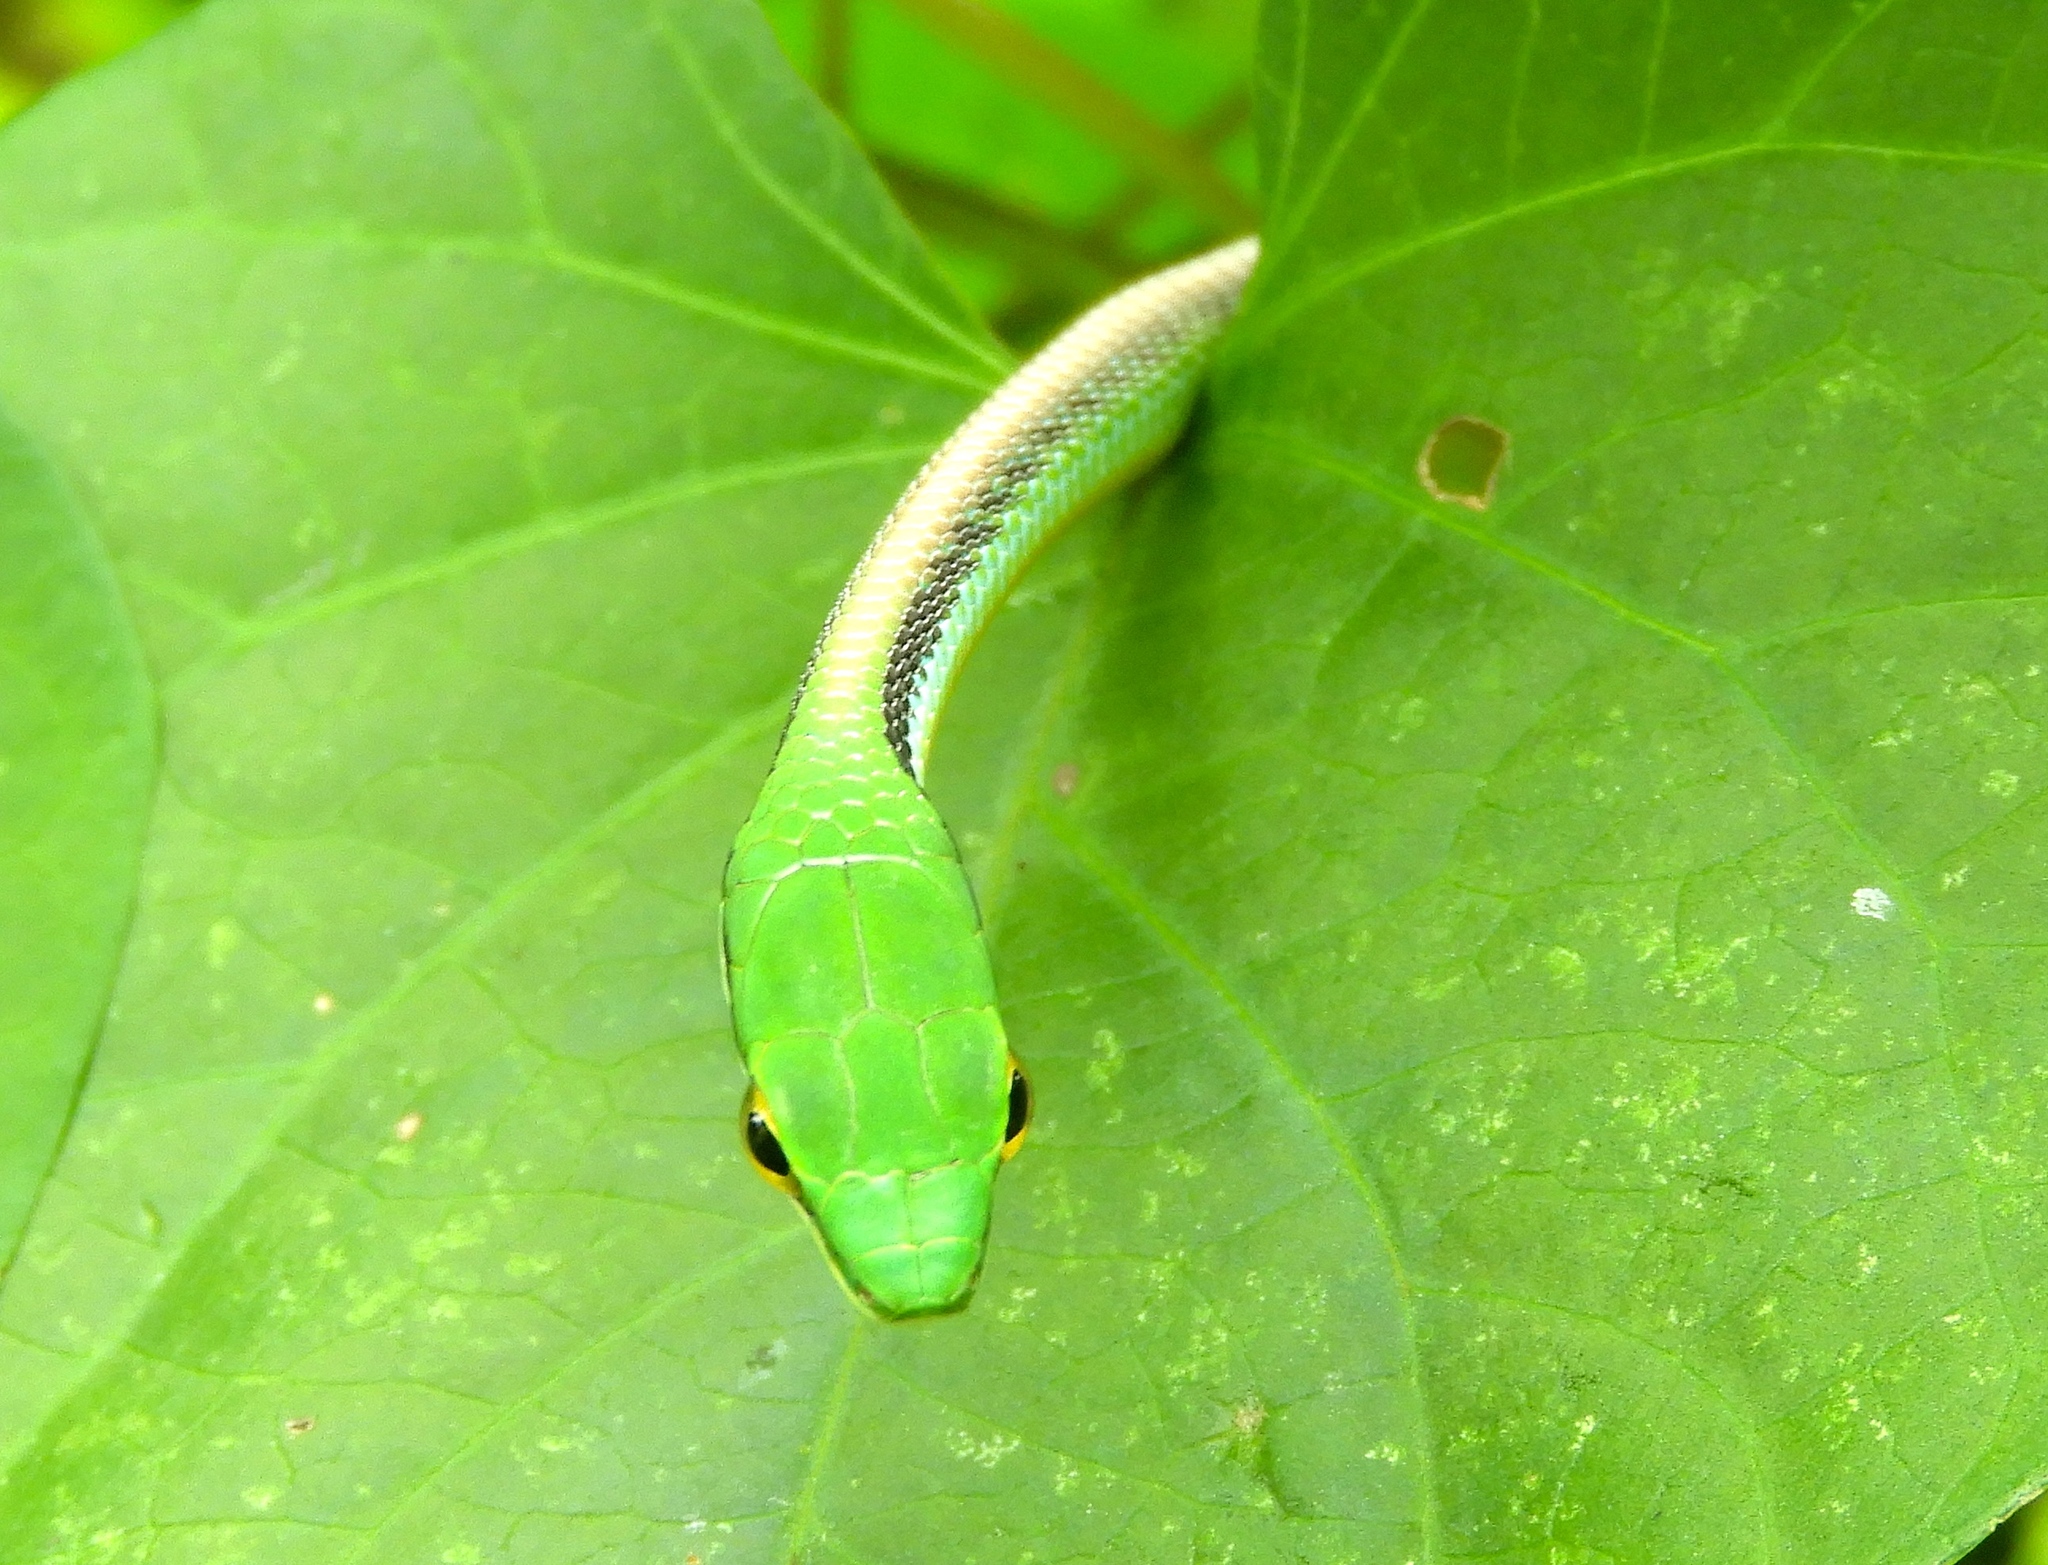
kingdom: Animalia
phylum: Chordata
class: Squamata
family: Colubridae
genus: Leptophis
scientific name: Leptophis diplotropis
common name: Pacific coast parrot snake
